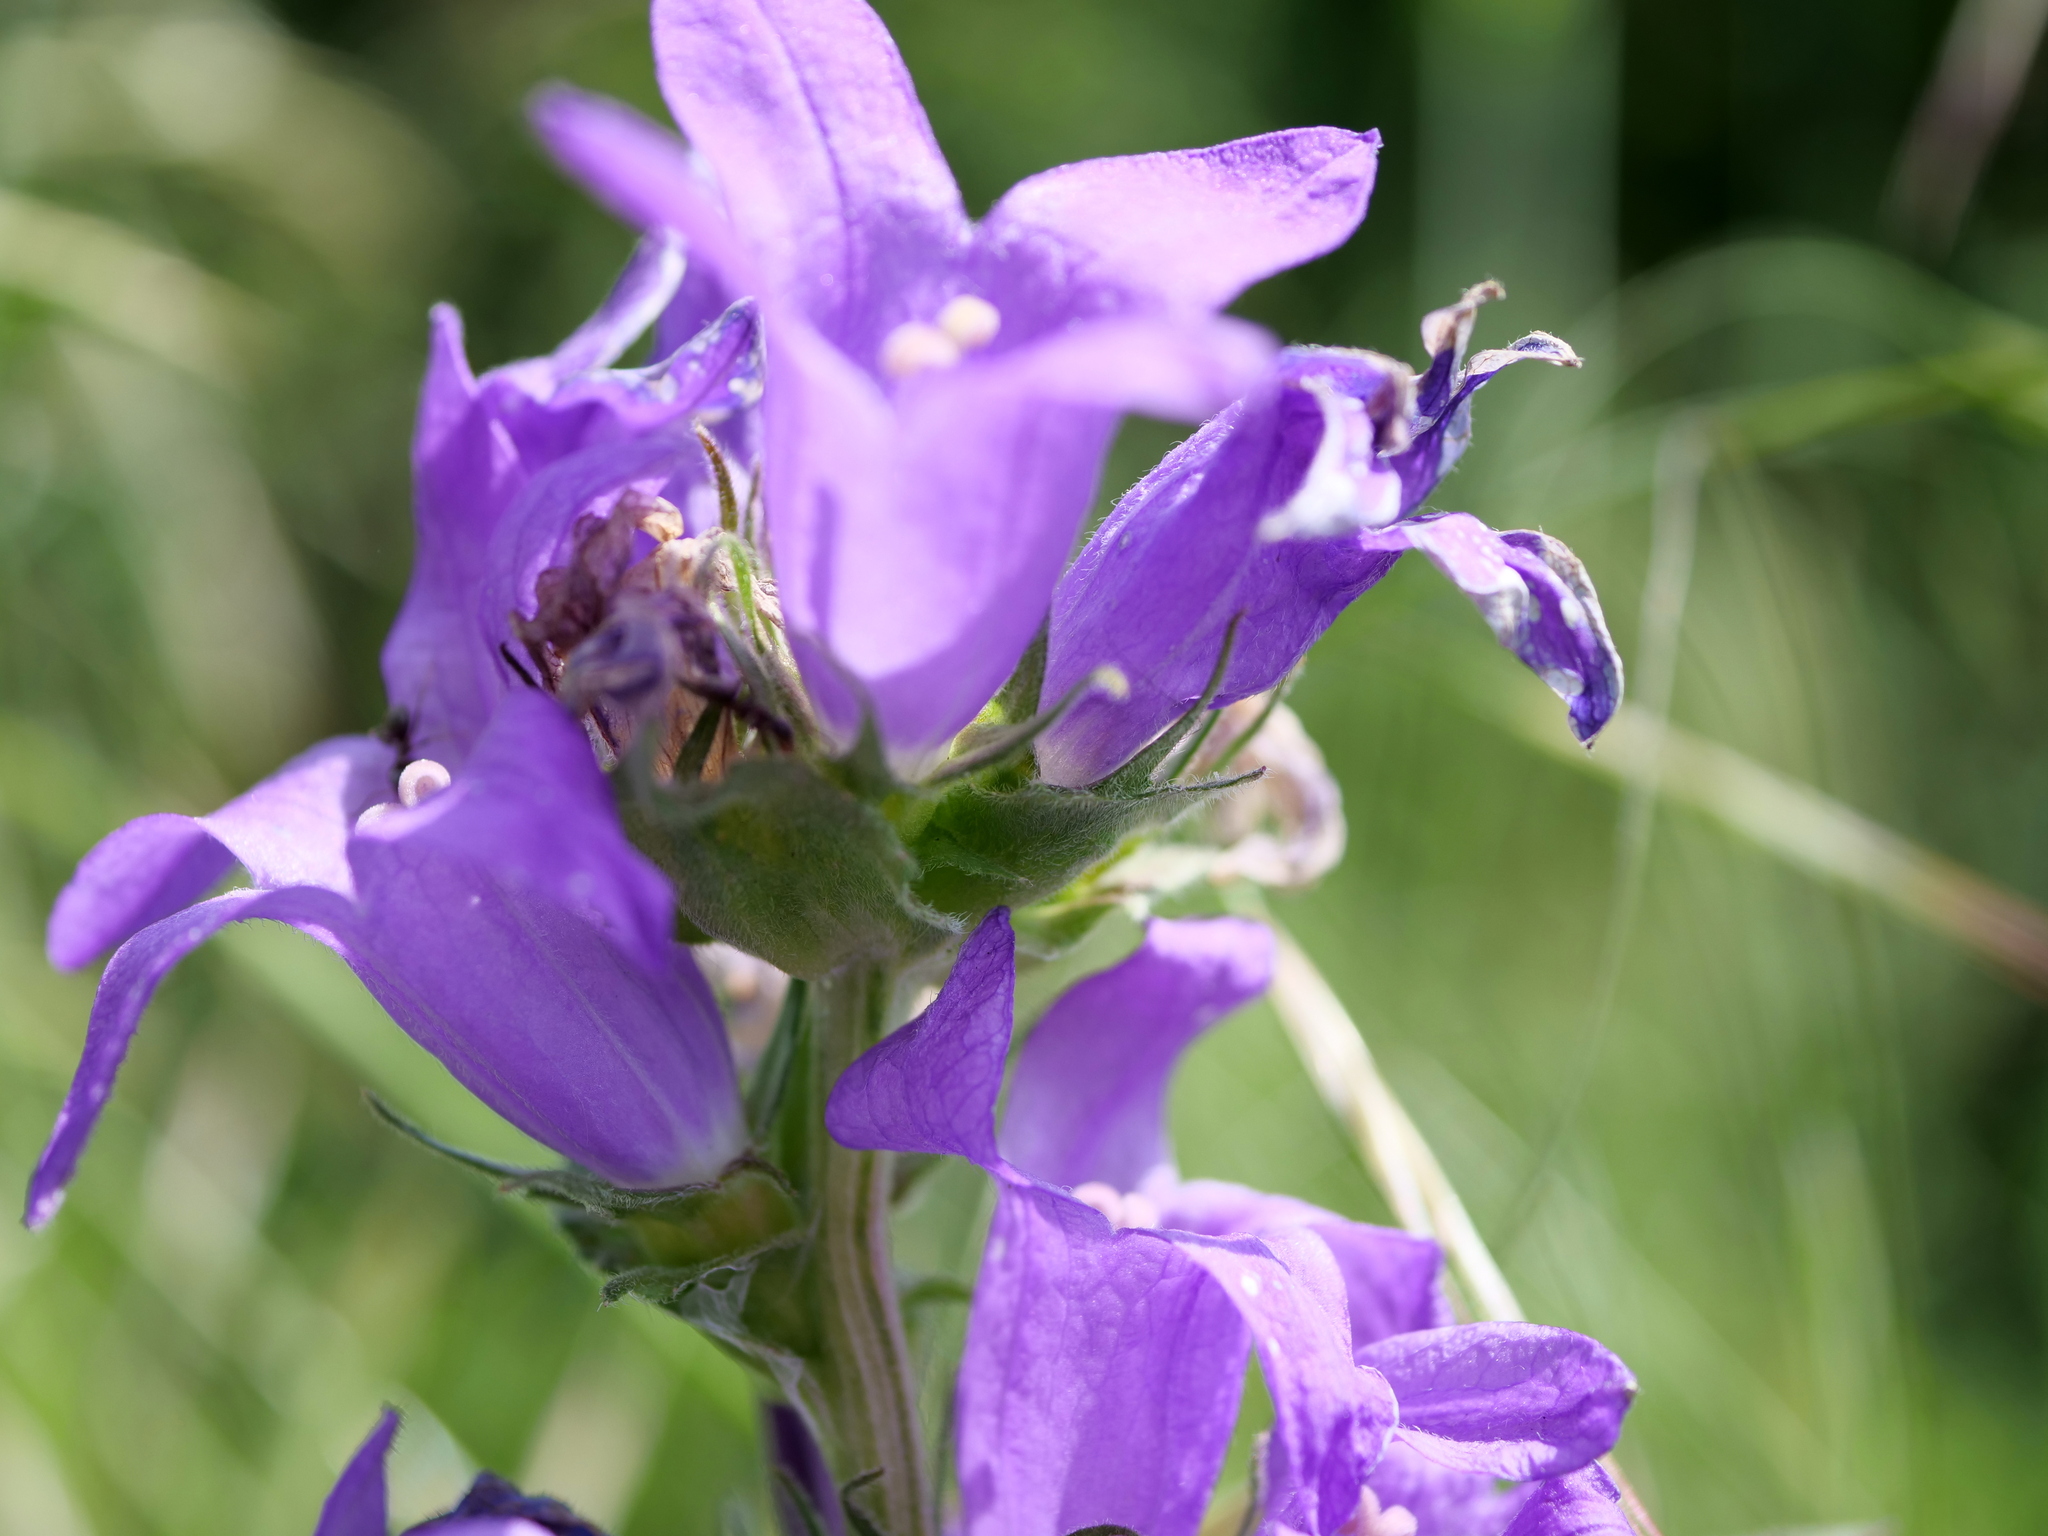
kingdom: Plantae
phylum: Tracheophyta
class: Magnoliopsida
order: Asterales
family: Campanulaceae
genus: Campanula
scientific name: Campanula glomerata
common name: Clustered bellflower
